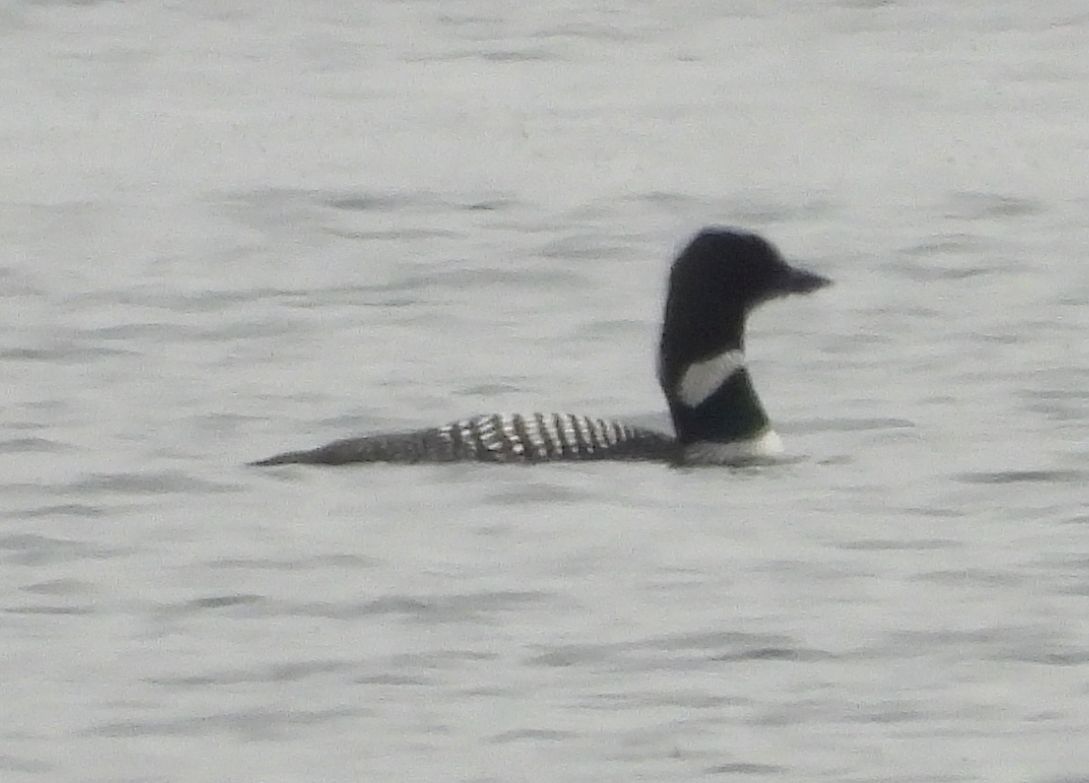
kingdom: Animalia
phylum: Chordata
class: Aves
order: Gaviiformes
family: Gaviidae
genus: Gavia
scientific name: Gavia immer
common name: Common loon
